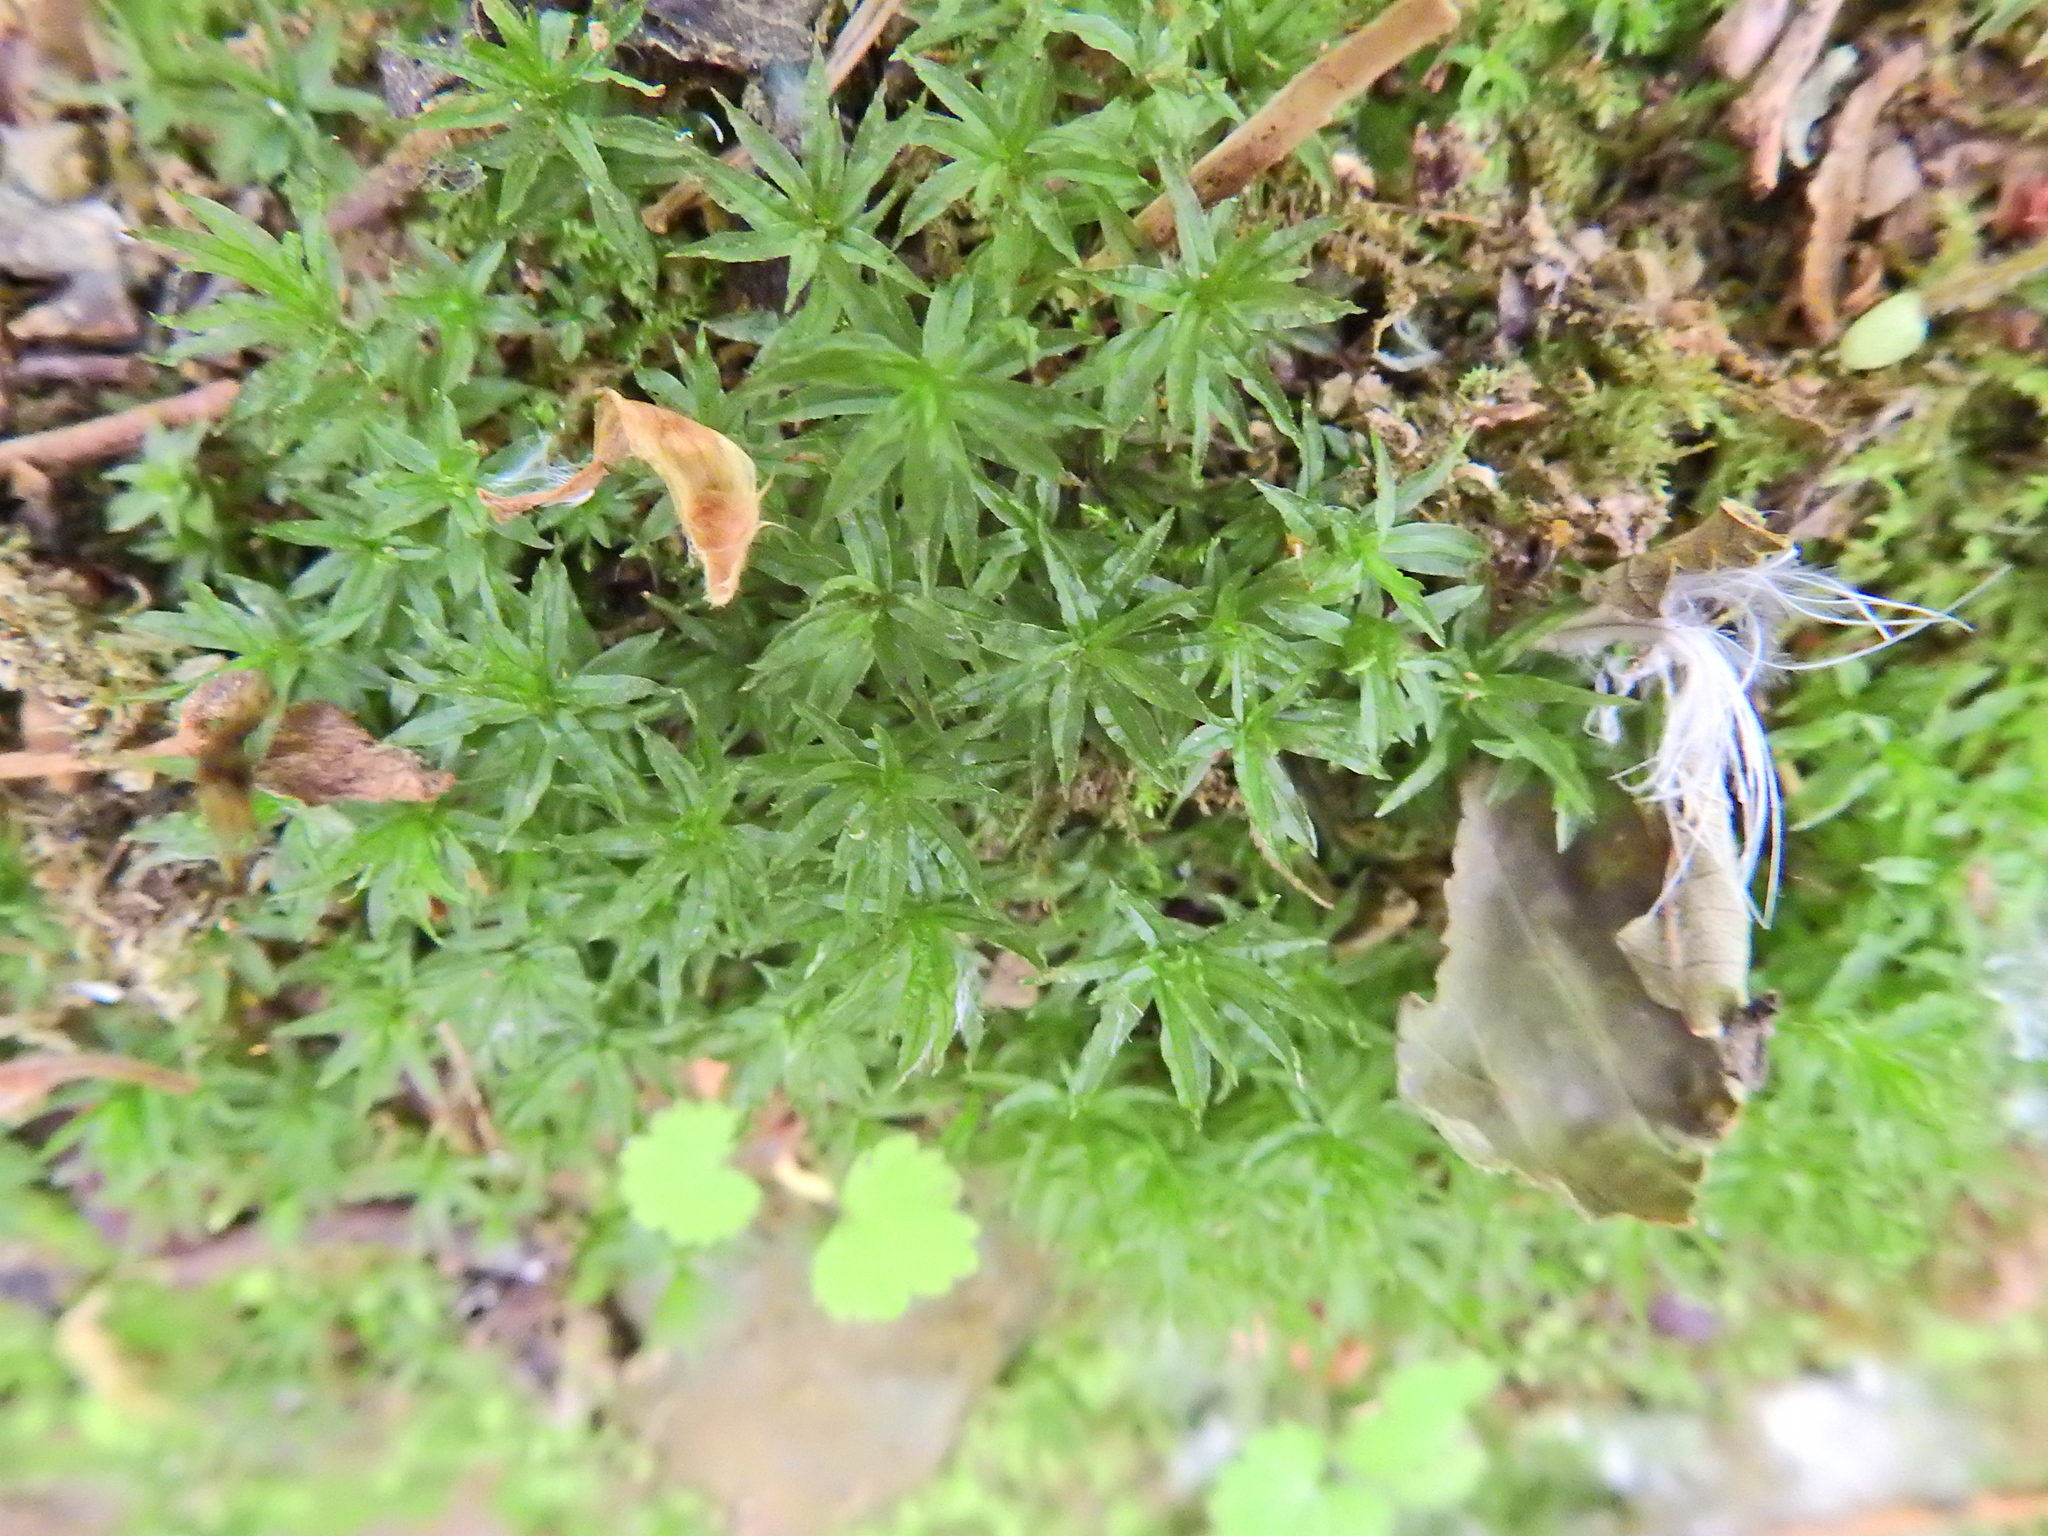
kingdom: Plantae
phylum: Bryophyta
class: Polytrichopsida
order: Polytrichales
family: Polytrichaceae
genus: Atrichum
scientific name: Atrichum undulatum
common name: Common smoothcap
